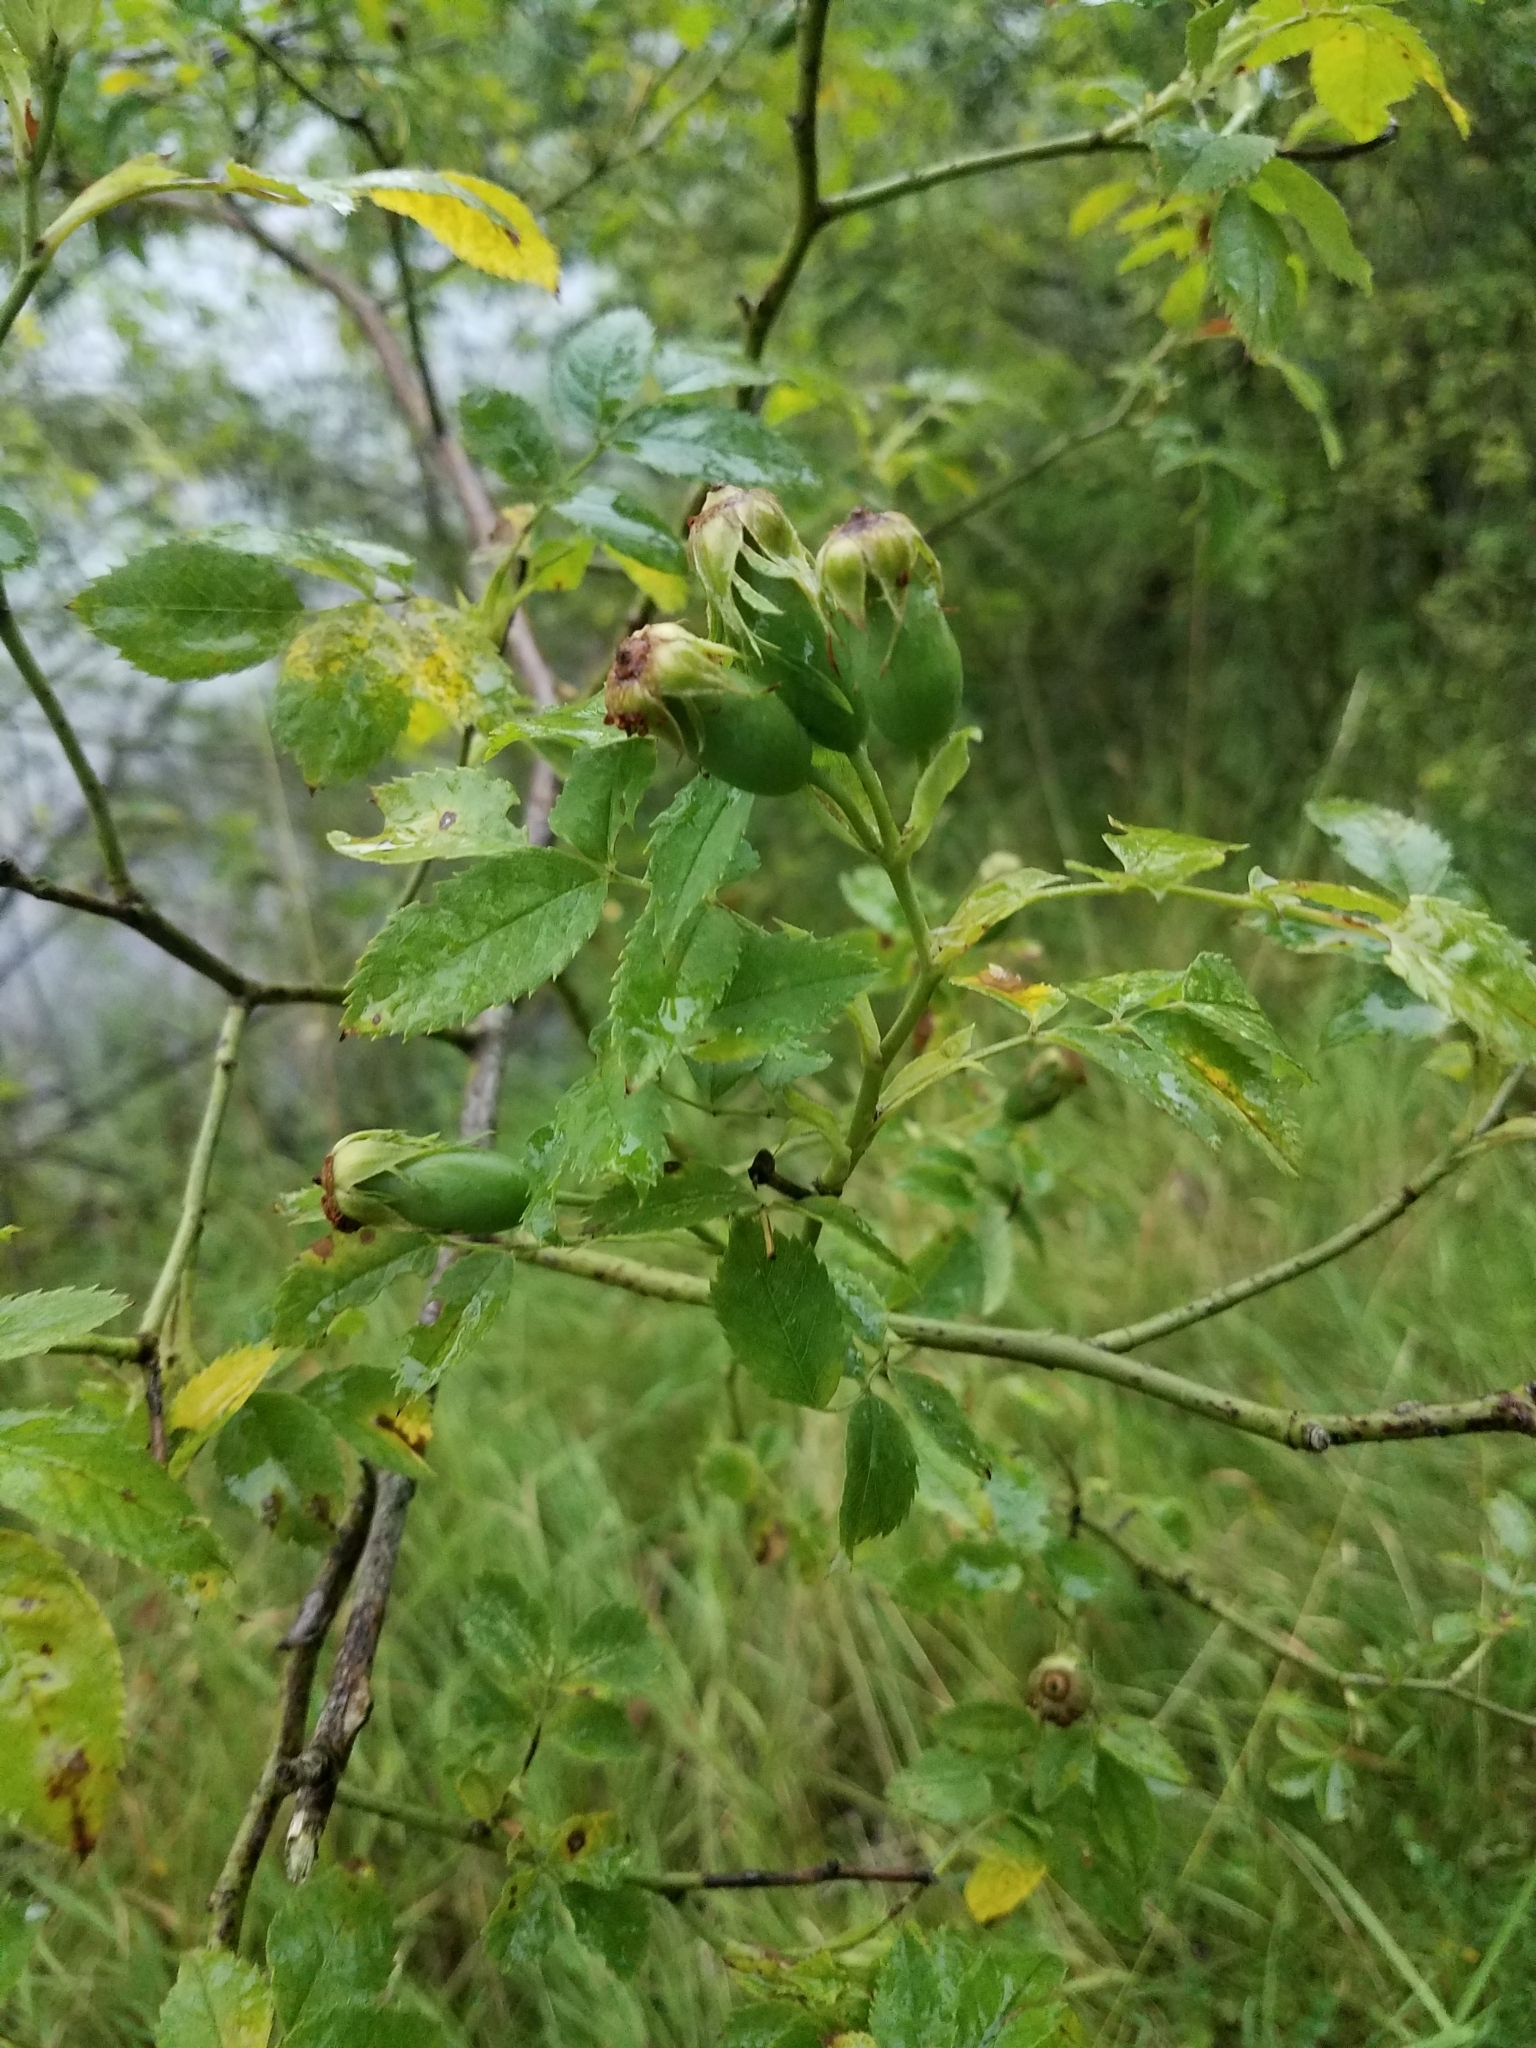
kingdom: Plantae
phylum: Tracheophyta
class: Magnoliopsida
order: Rosales
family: Rosaceae
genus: Rosa
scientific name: Rosa canina
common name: Dog rose
